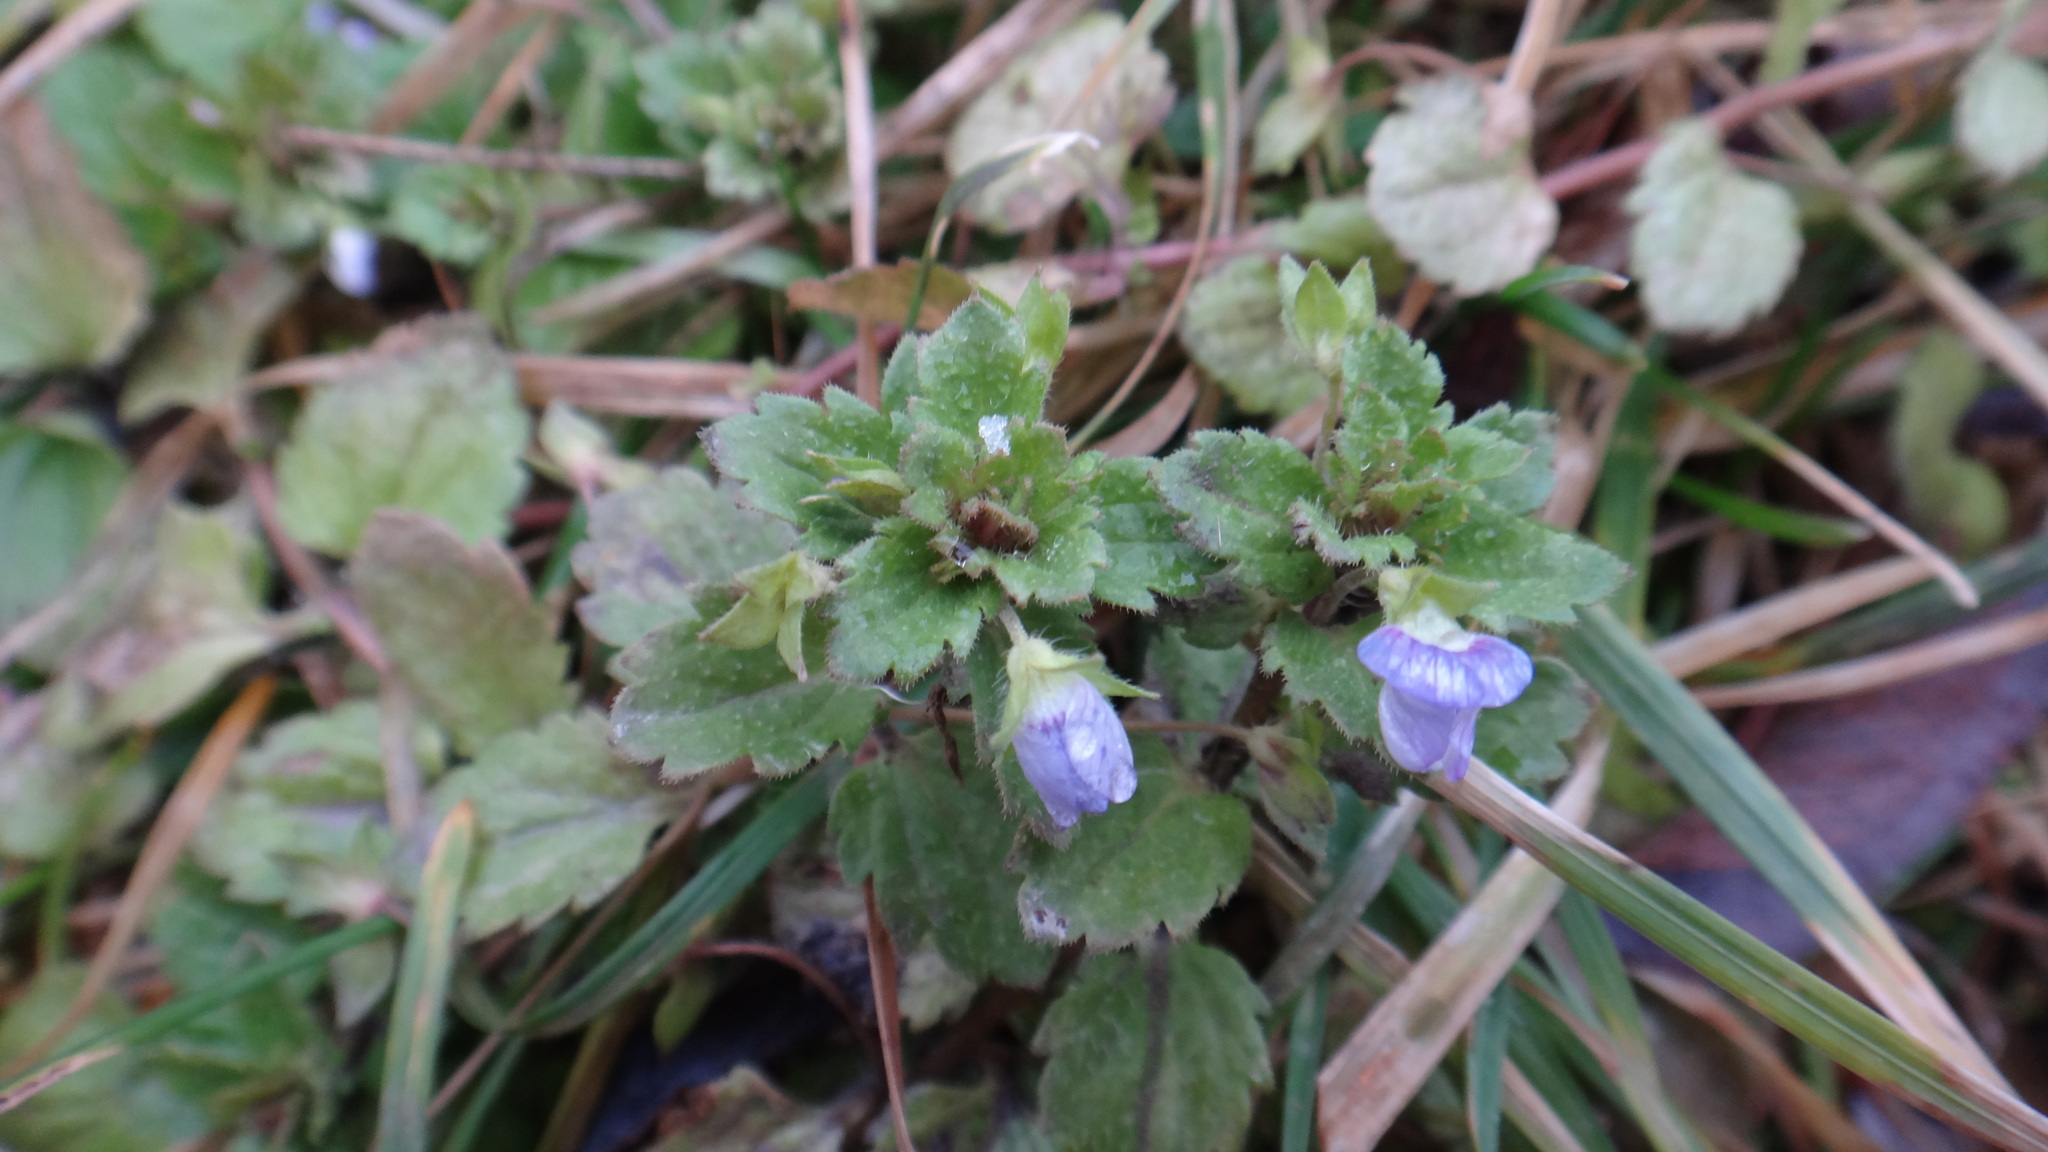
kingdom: Plantae
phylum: Tracheophyta
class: Magnoliopsida
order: Lamiales
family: Plantaginaceae
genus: Veronica
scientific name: Veronica persica
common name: Common field-speedwell
